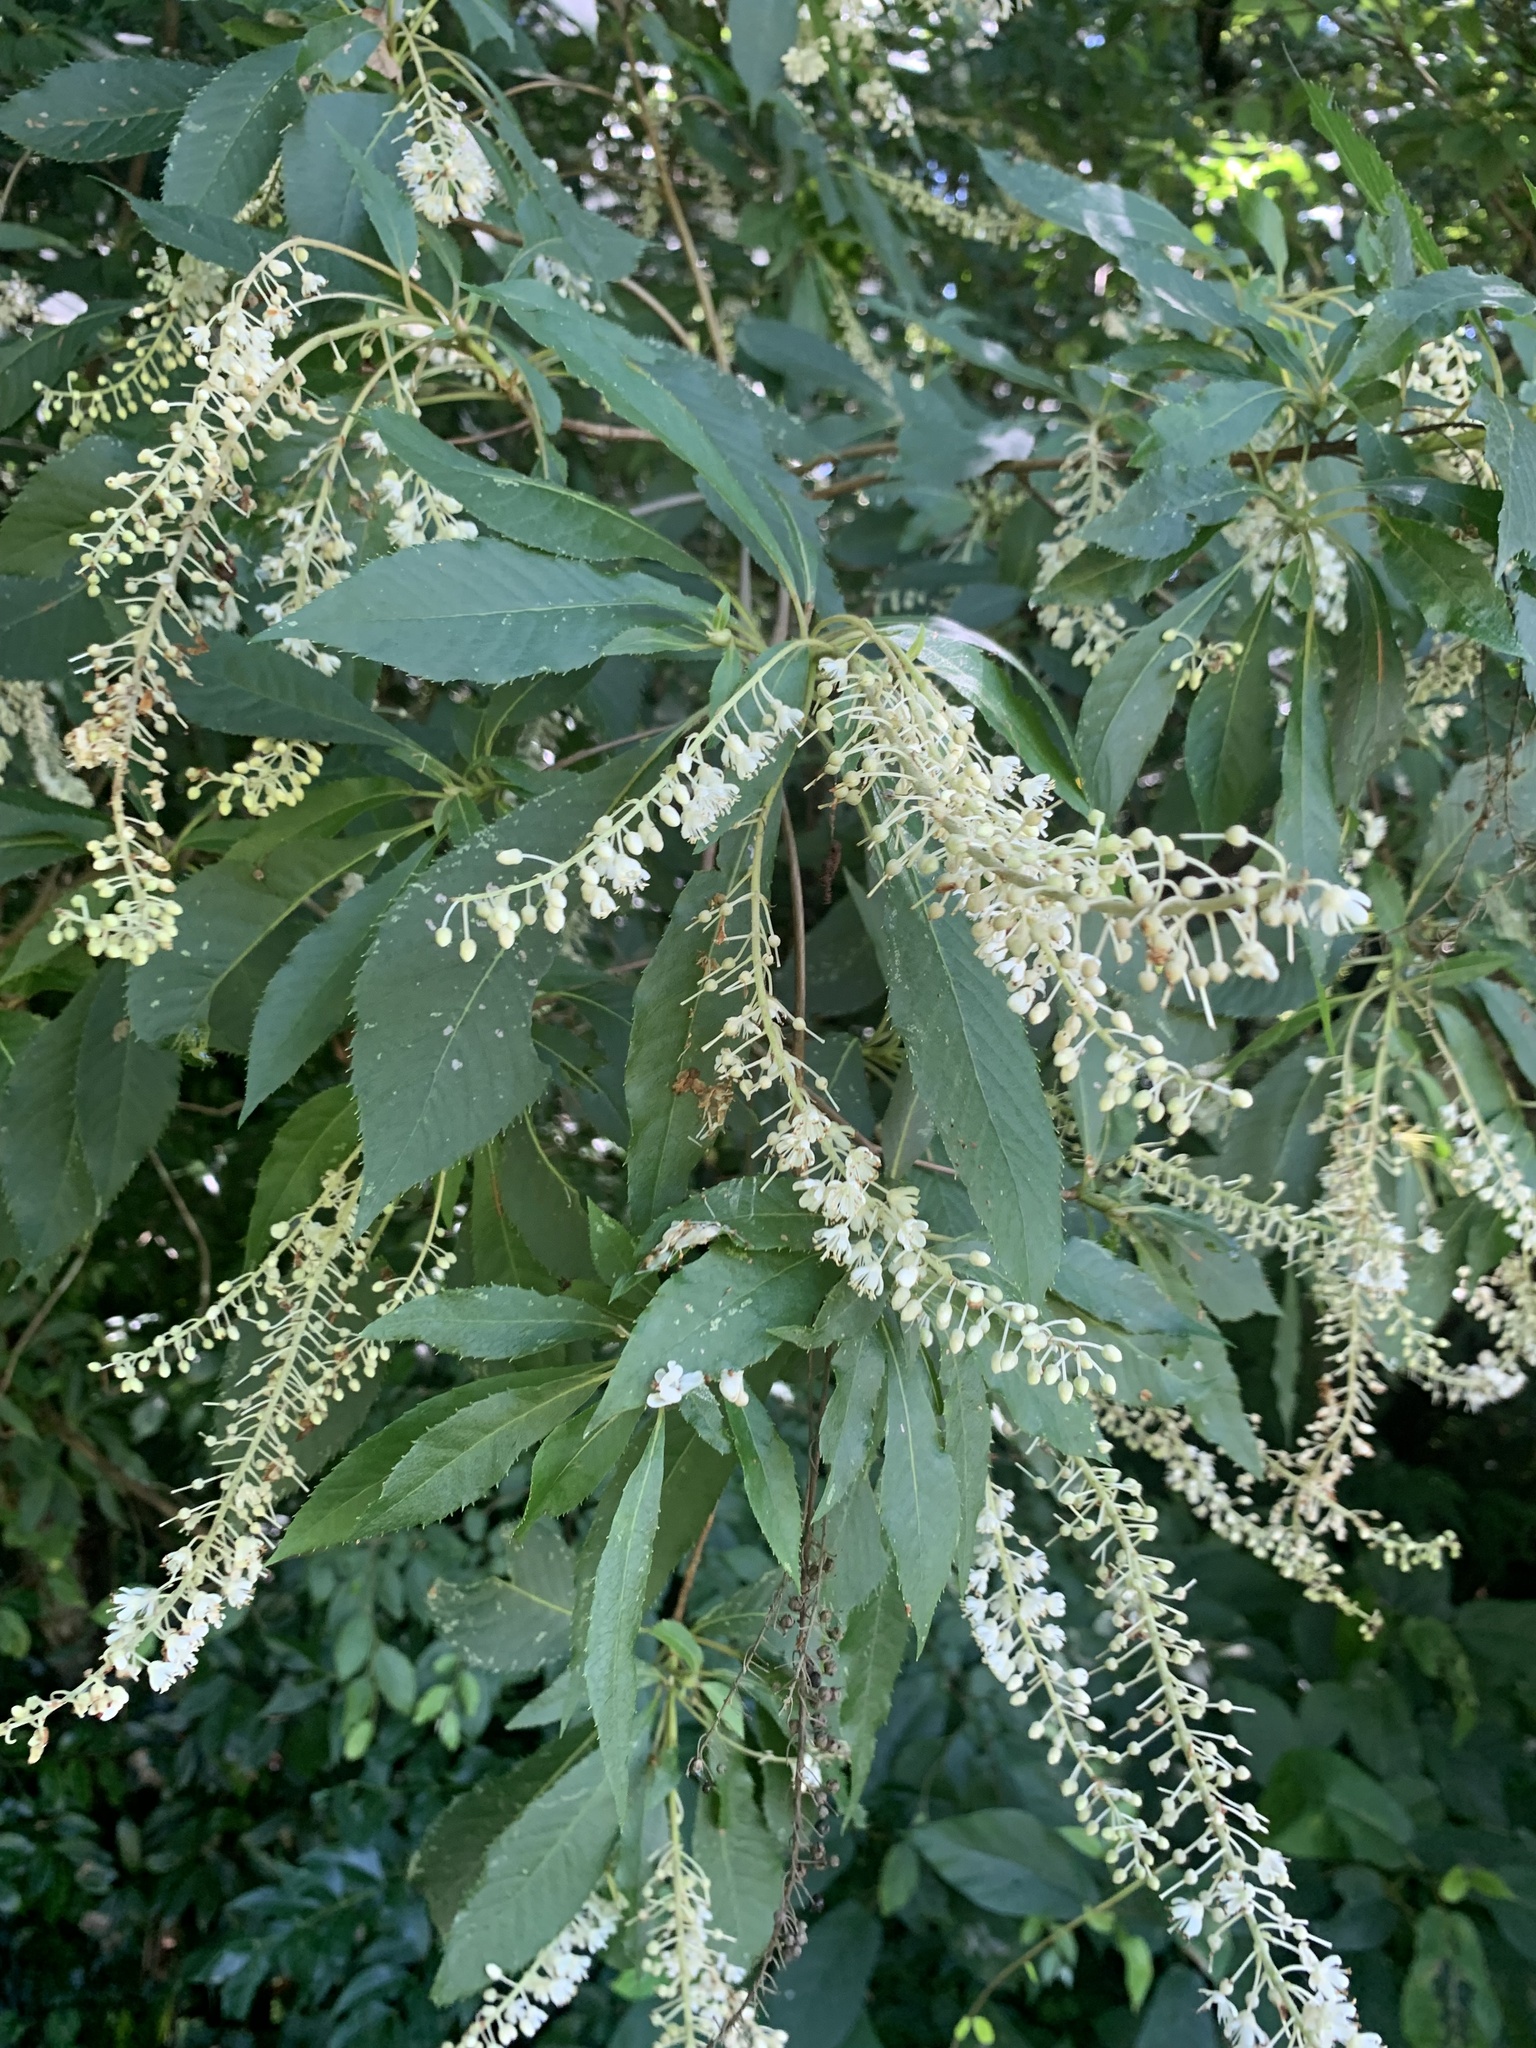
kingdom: Plantae
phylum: Tracheophyta
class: Magnoliopsida
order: Ericales
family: Clethraceae
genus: Clethra
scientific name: Clethra barbinervis
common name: Japanese clethra
